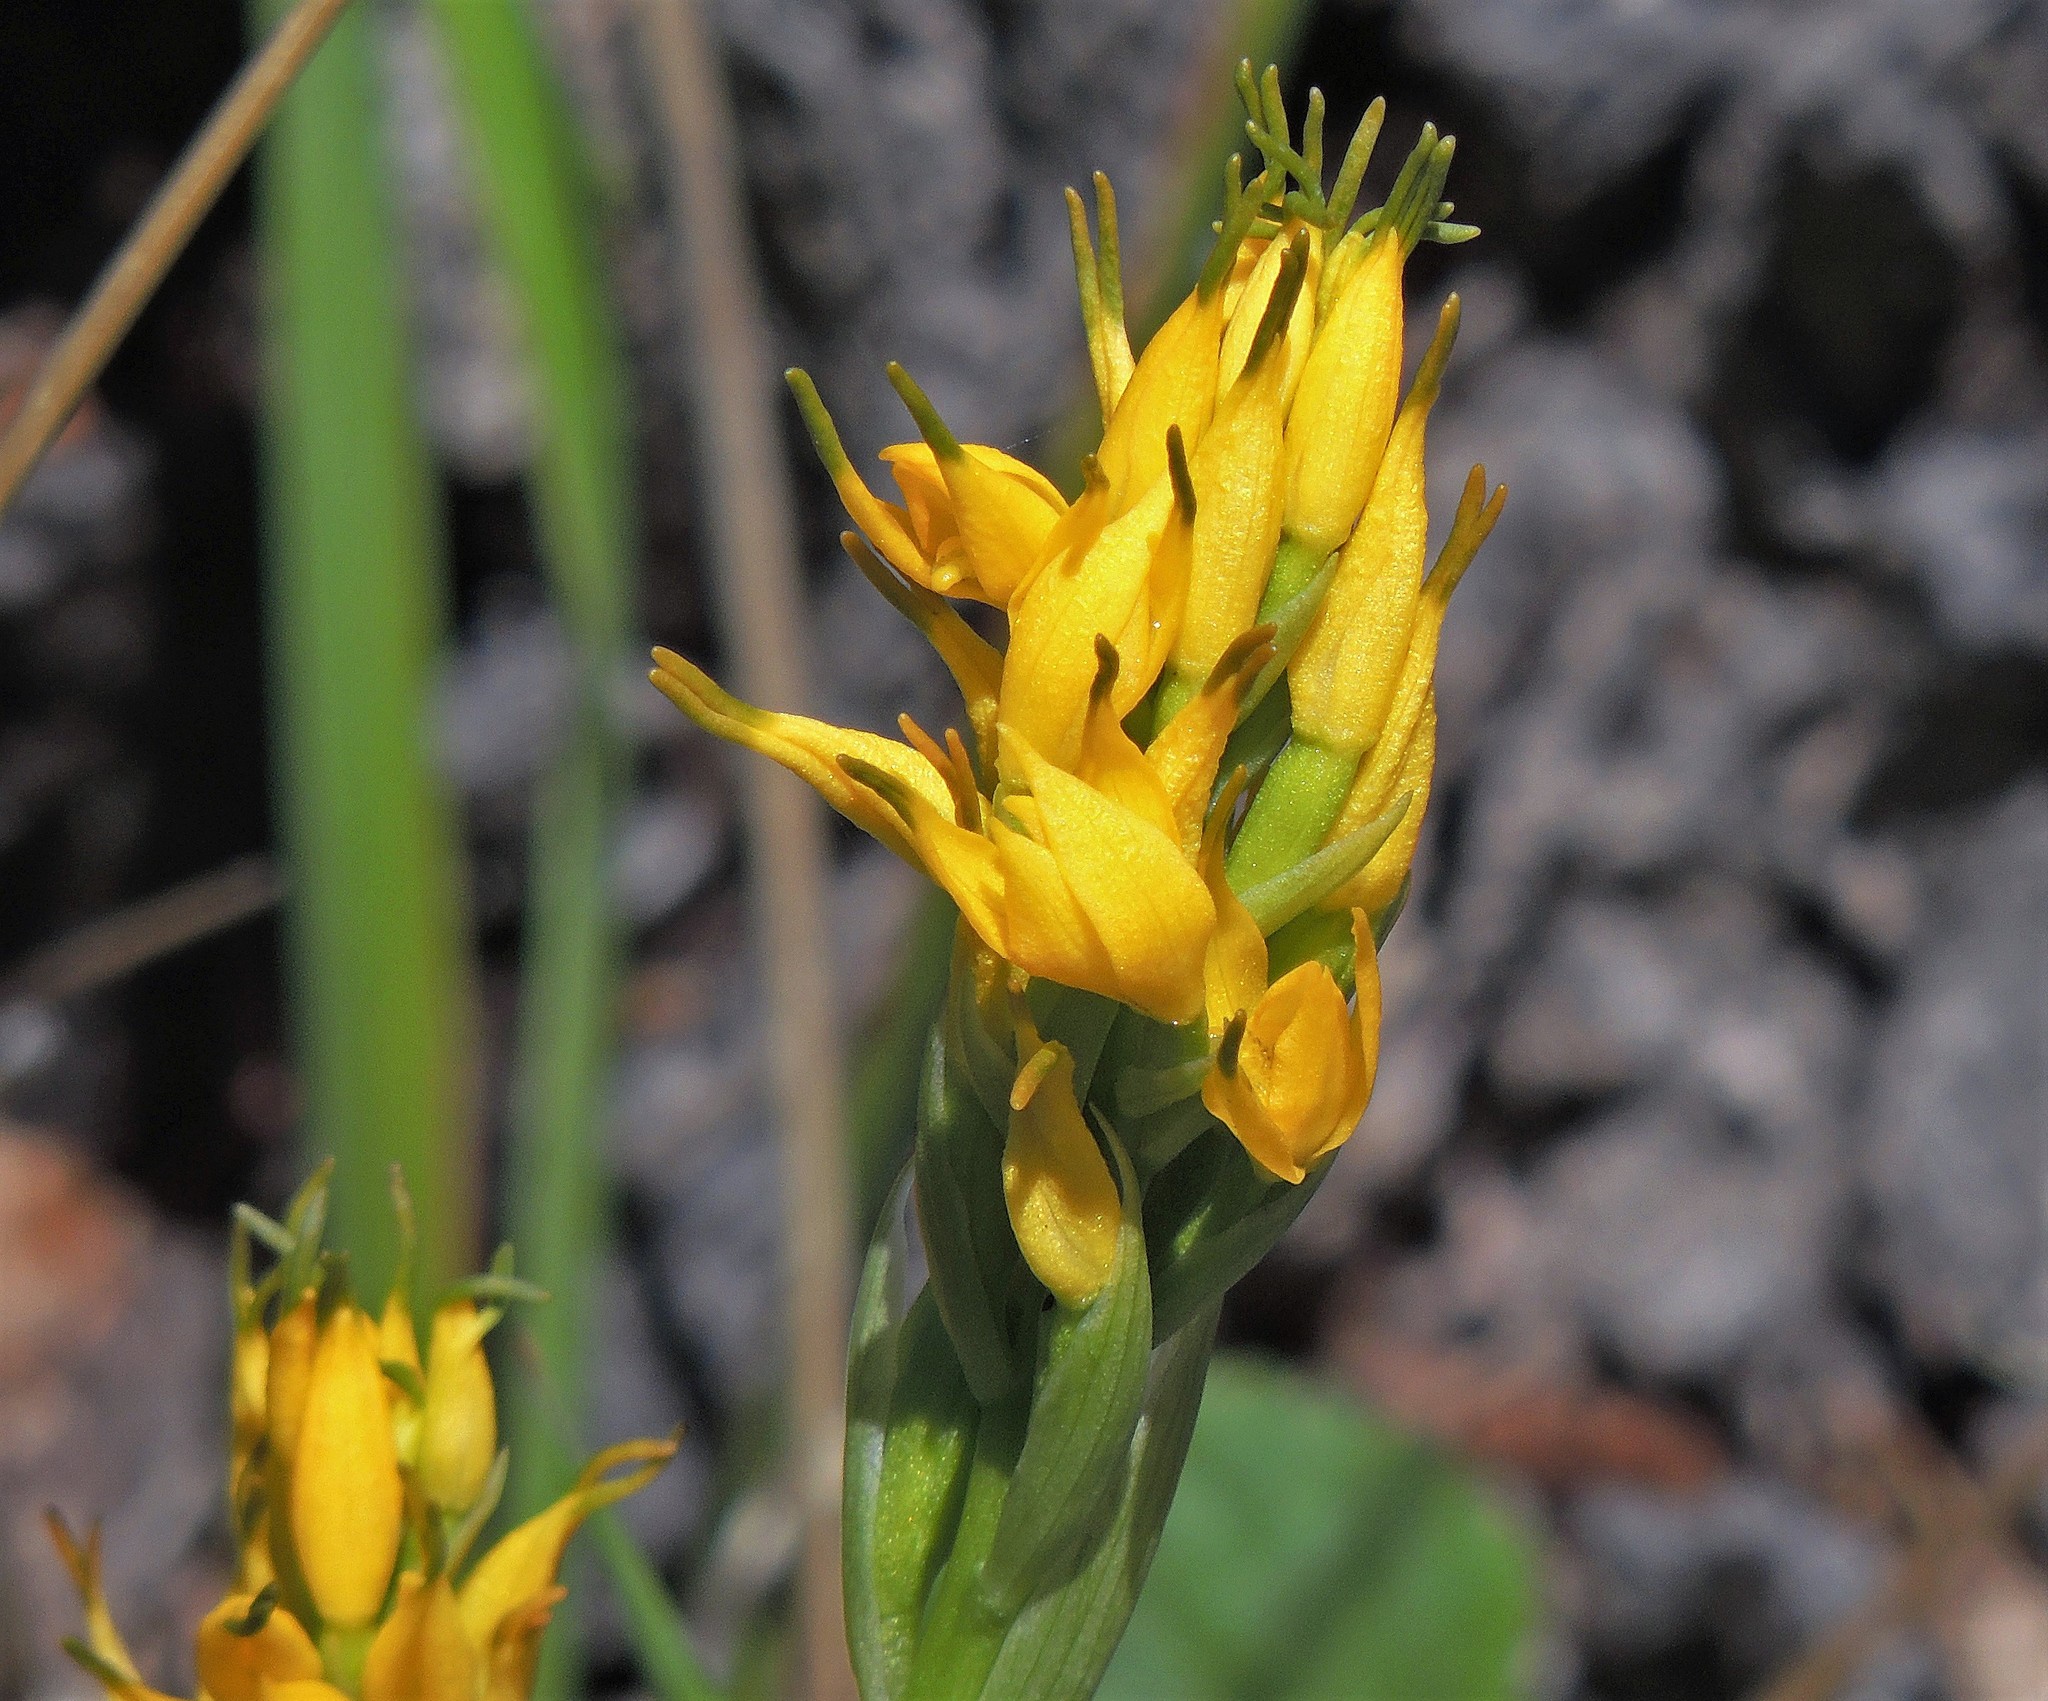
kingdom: Plantae
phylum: Tracheophyta
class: Liliopsida
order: Asparagales
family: Orchidaceae
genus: Gavilea
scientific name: Gavilea supralabellata
